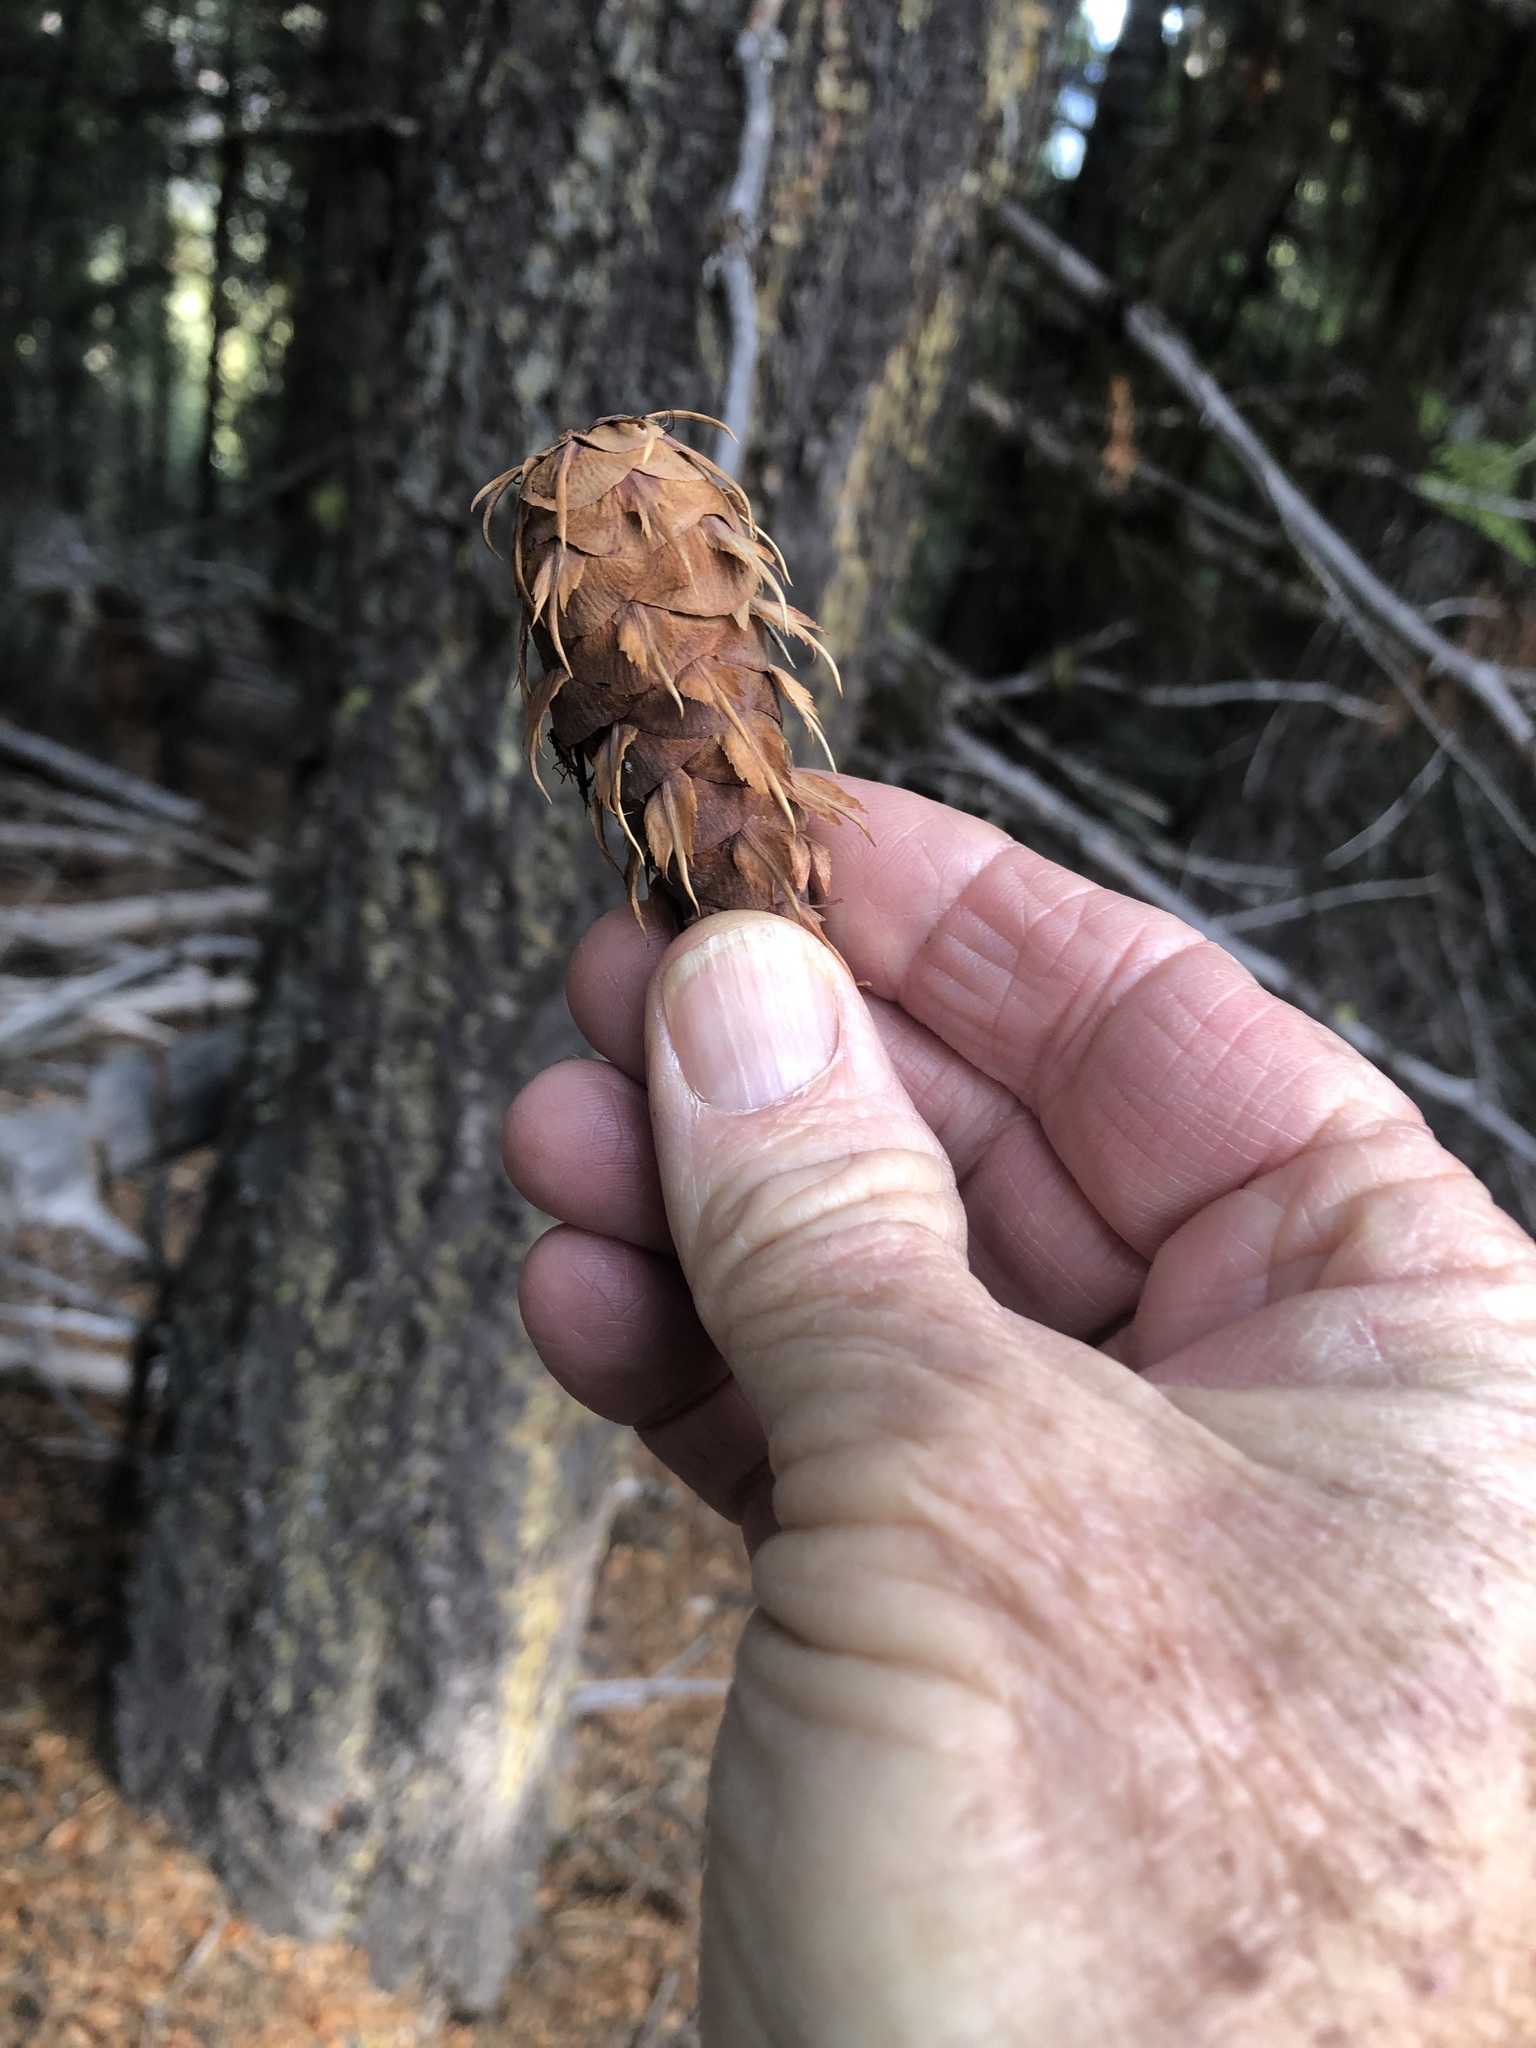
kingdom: Plantae
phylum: Tracheophyta
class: Pinopsida
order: Pinales
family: Pinaceae
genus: Pseudotsuga
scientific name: Pseudotsuga menziesii
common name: Douglas fir
